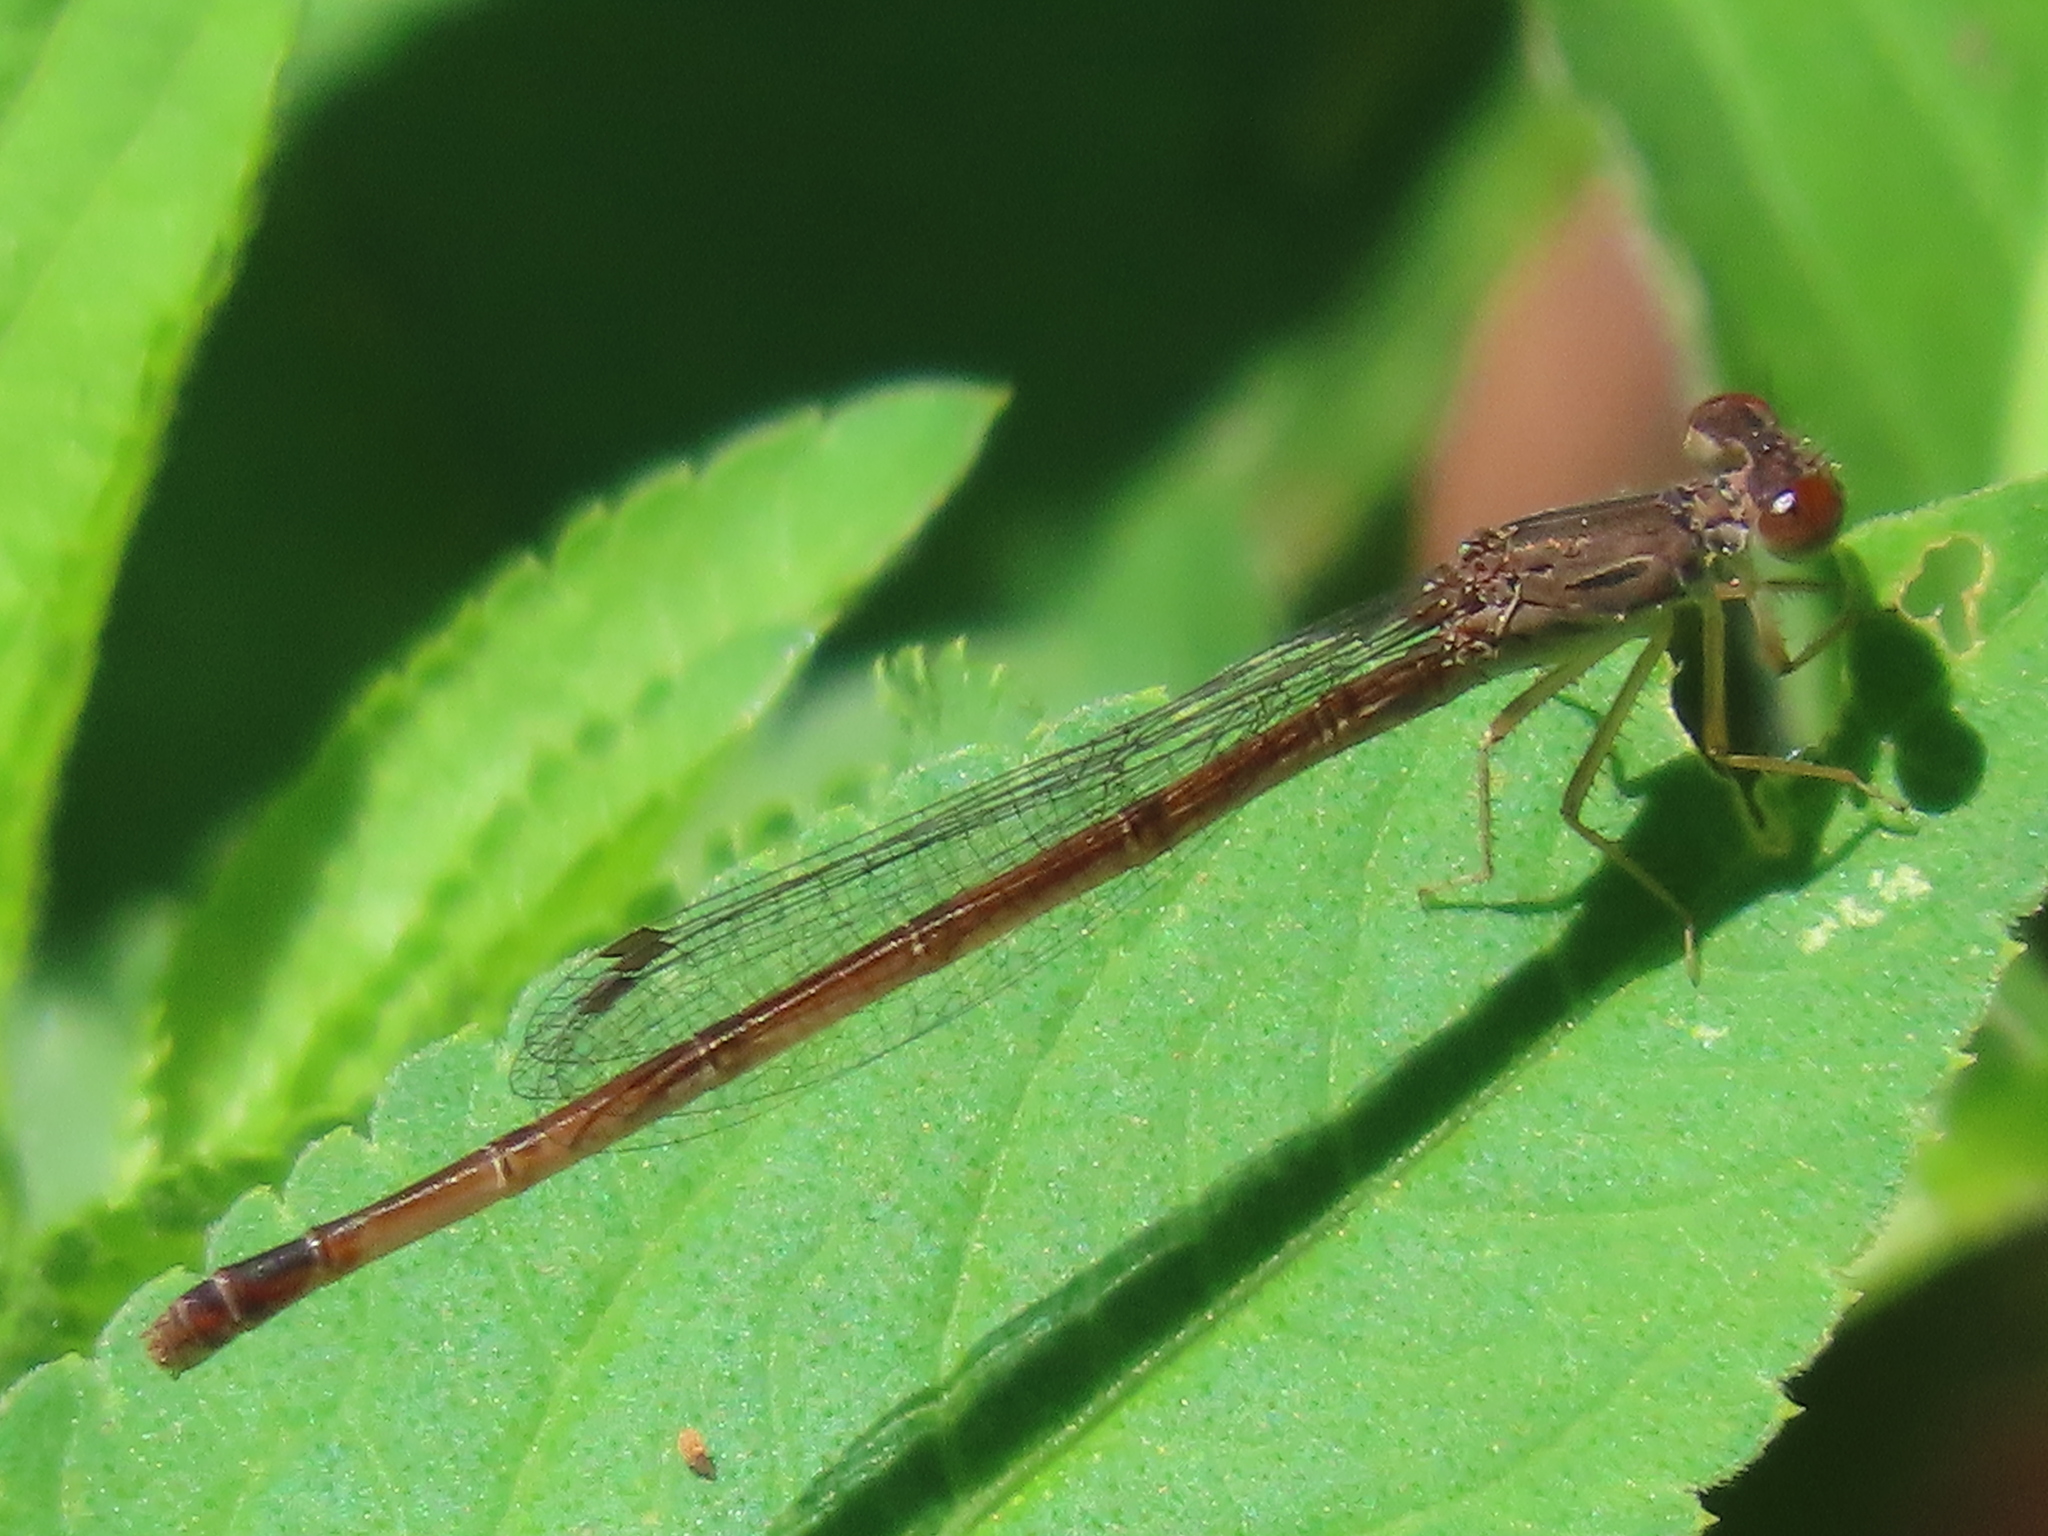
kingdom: Animalia
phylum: Arthropoda
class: Insecta
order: Odonata
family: Coenagrionidae
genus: Telebasis
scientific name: Telebasis byersi
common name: Duckweed firetail
